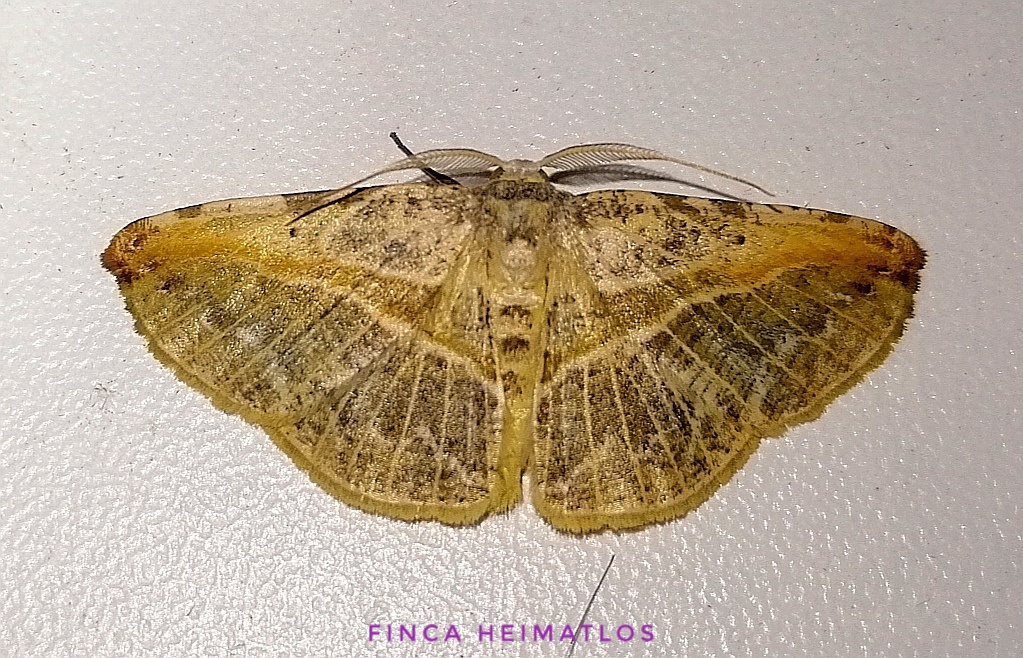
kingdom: Animalia
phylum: Arthropoda
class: Insecta
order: Lepidoptera
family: Geometridae
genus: Eusarca
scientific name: Eusarca minucia
